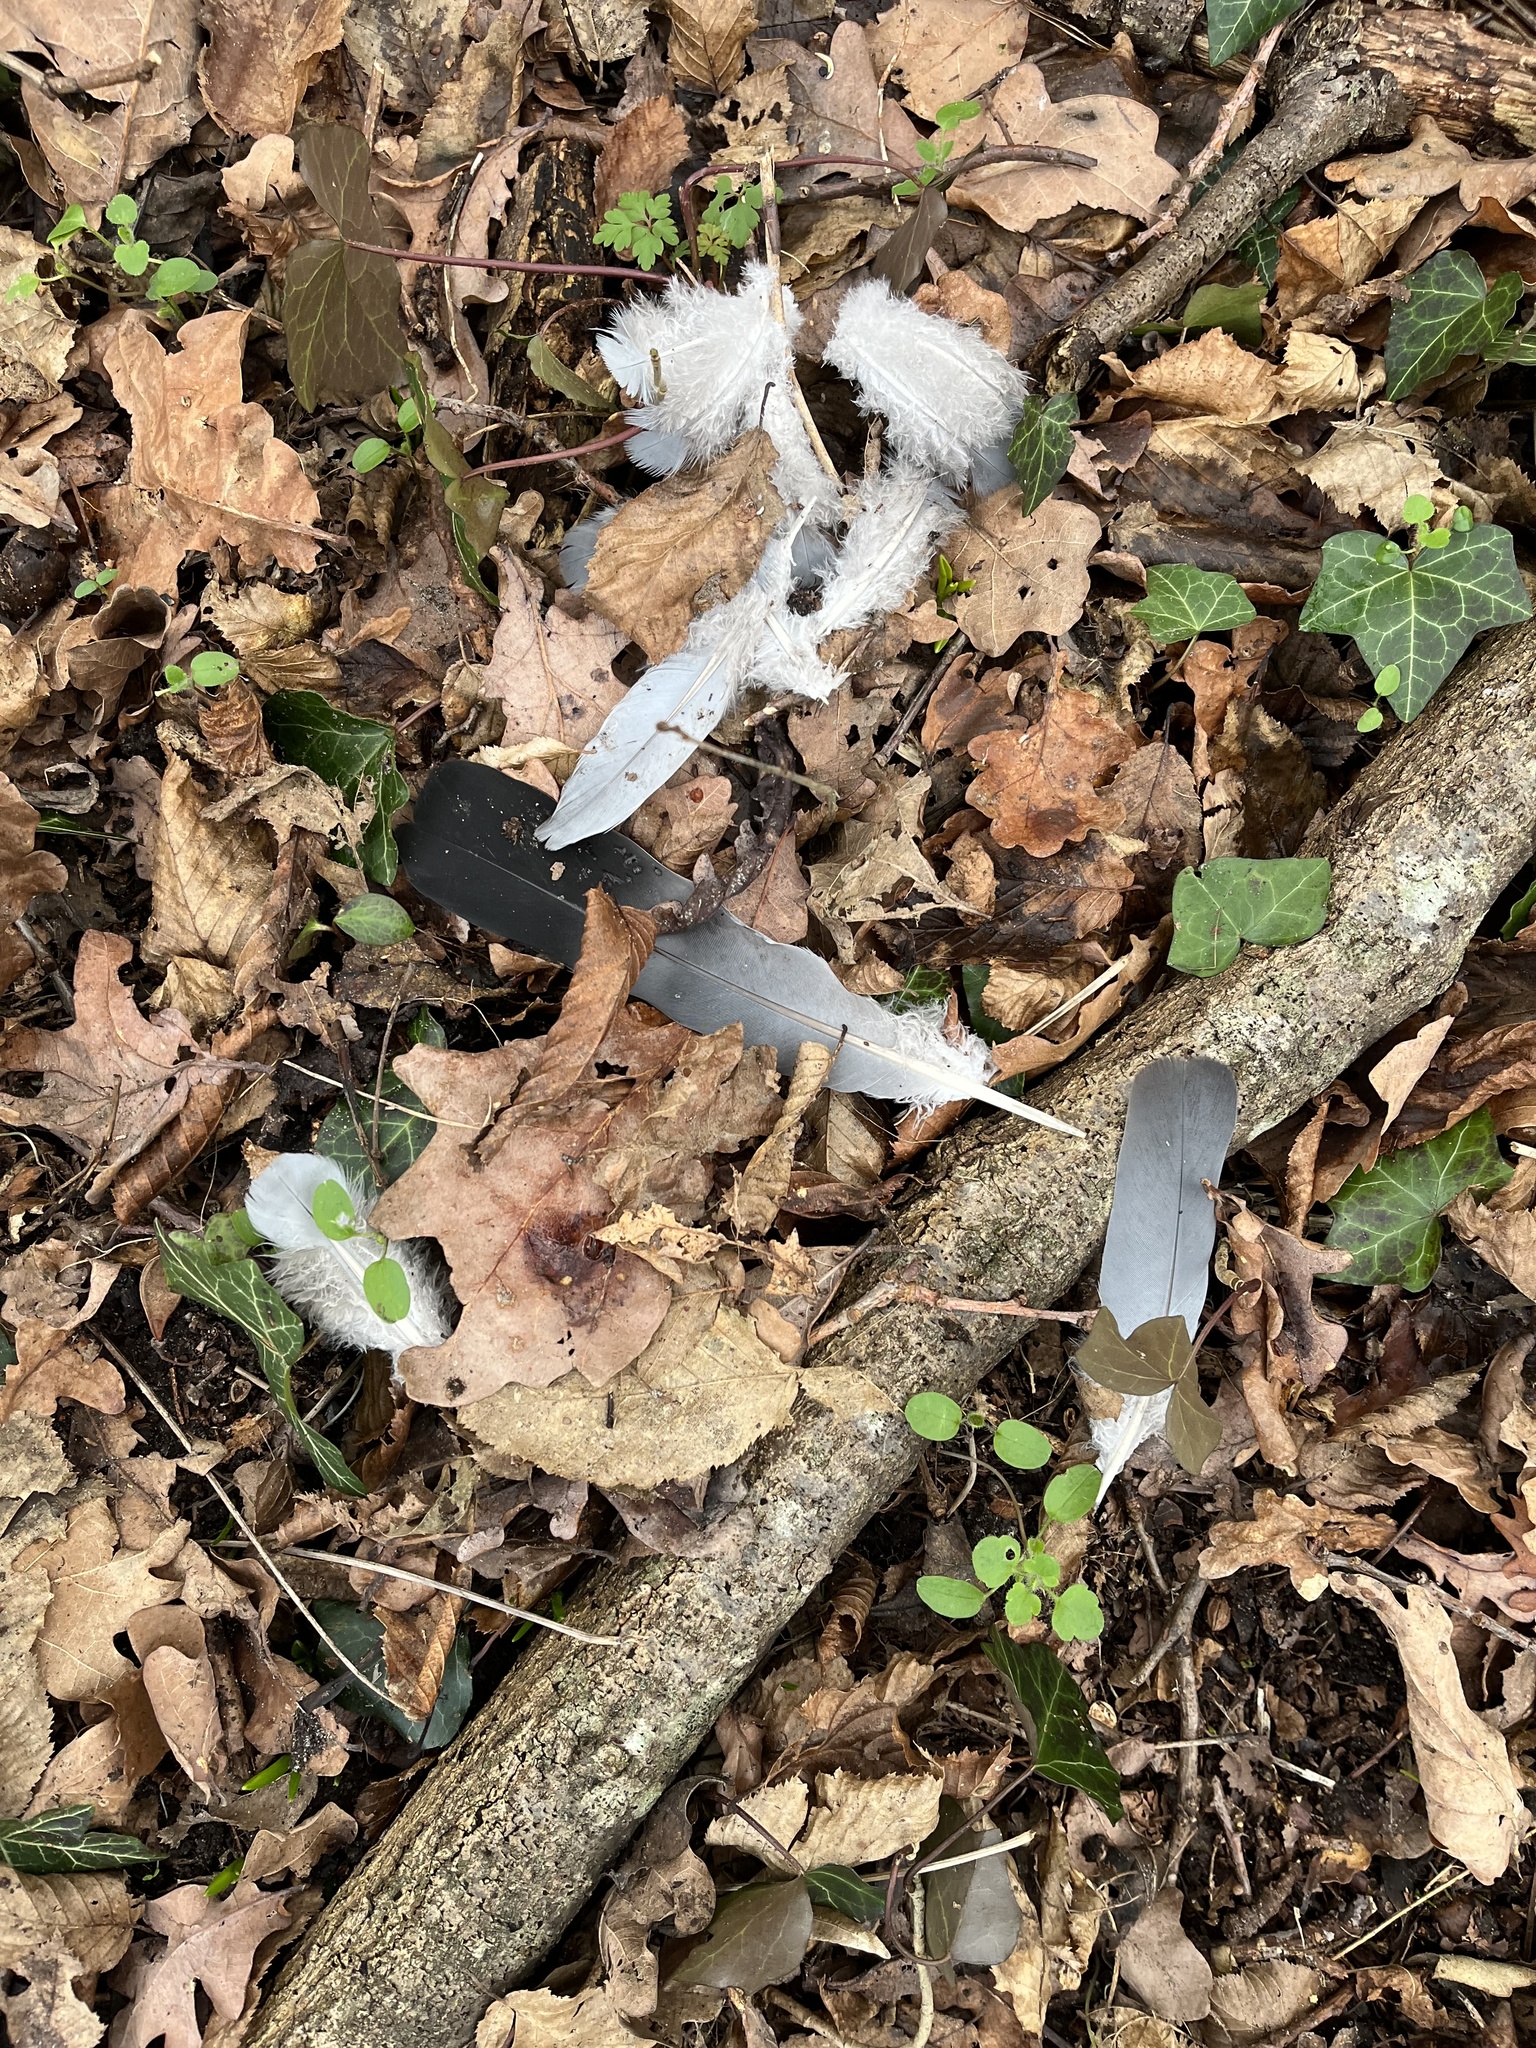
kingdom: Animalia
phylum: Chordata
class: Aves
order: Columbiformes
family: Columbidae
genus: Columba
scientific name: Columba palumbus
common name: Common wood pigeon
